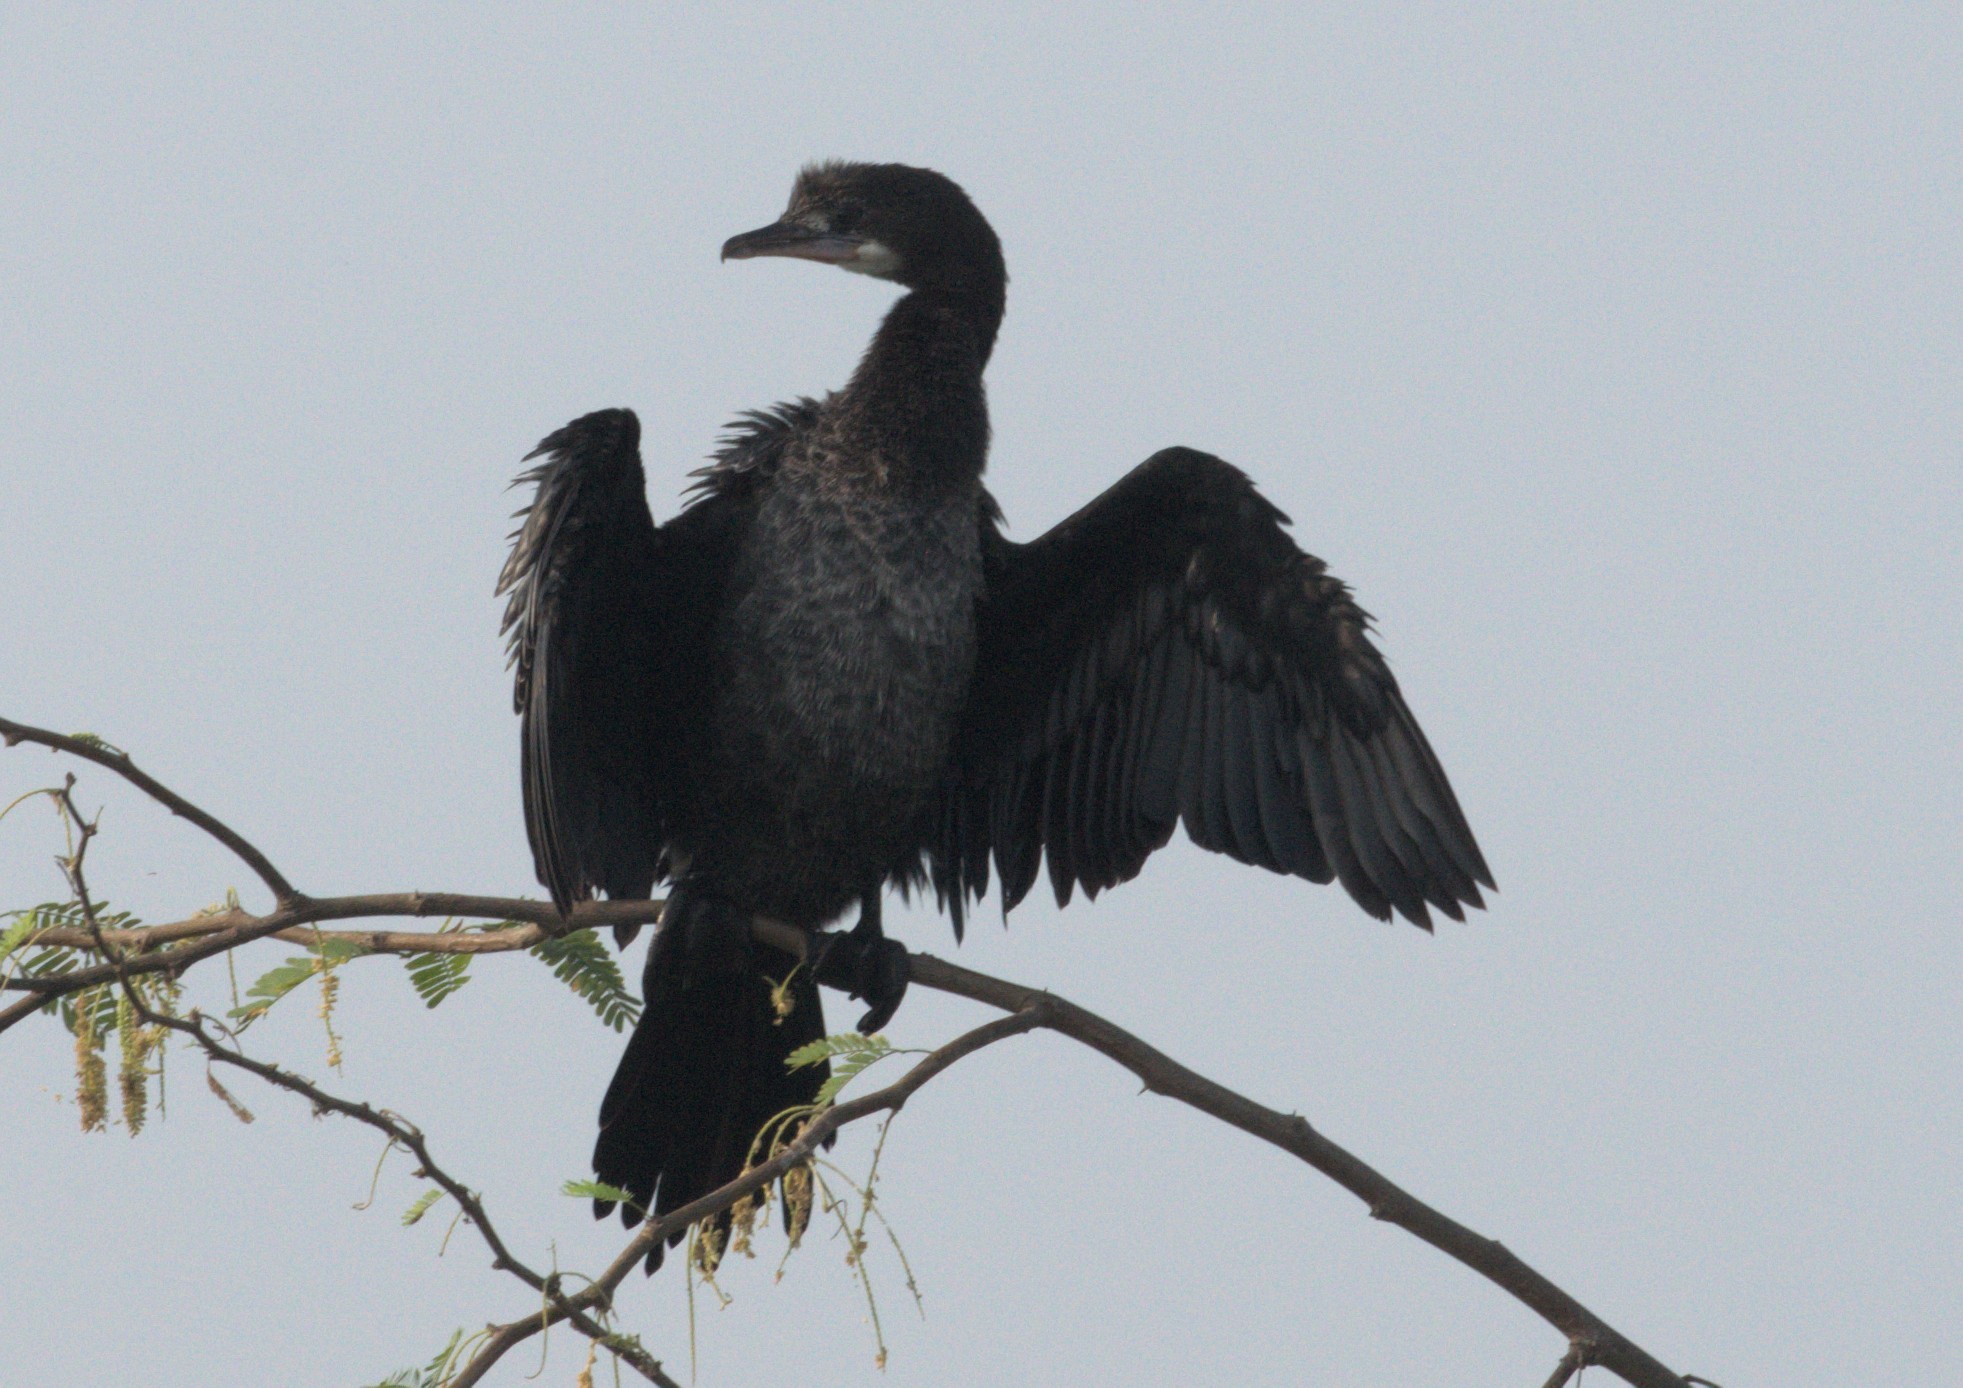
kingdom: Animalia
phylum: Chordata
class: Aves
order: Suliformes
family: Phalacrocoracidae
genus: Microcarbo
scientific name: Microcarbo niger
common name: Little cormorant
